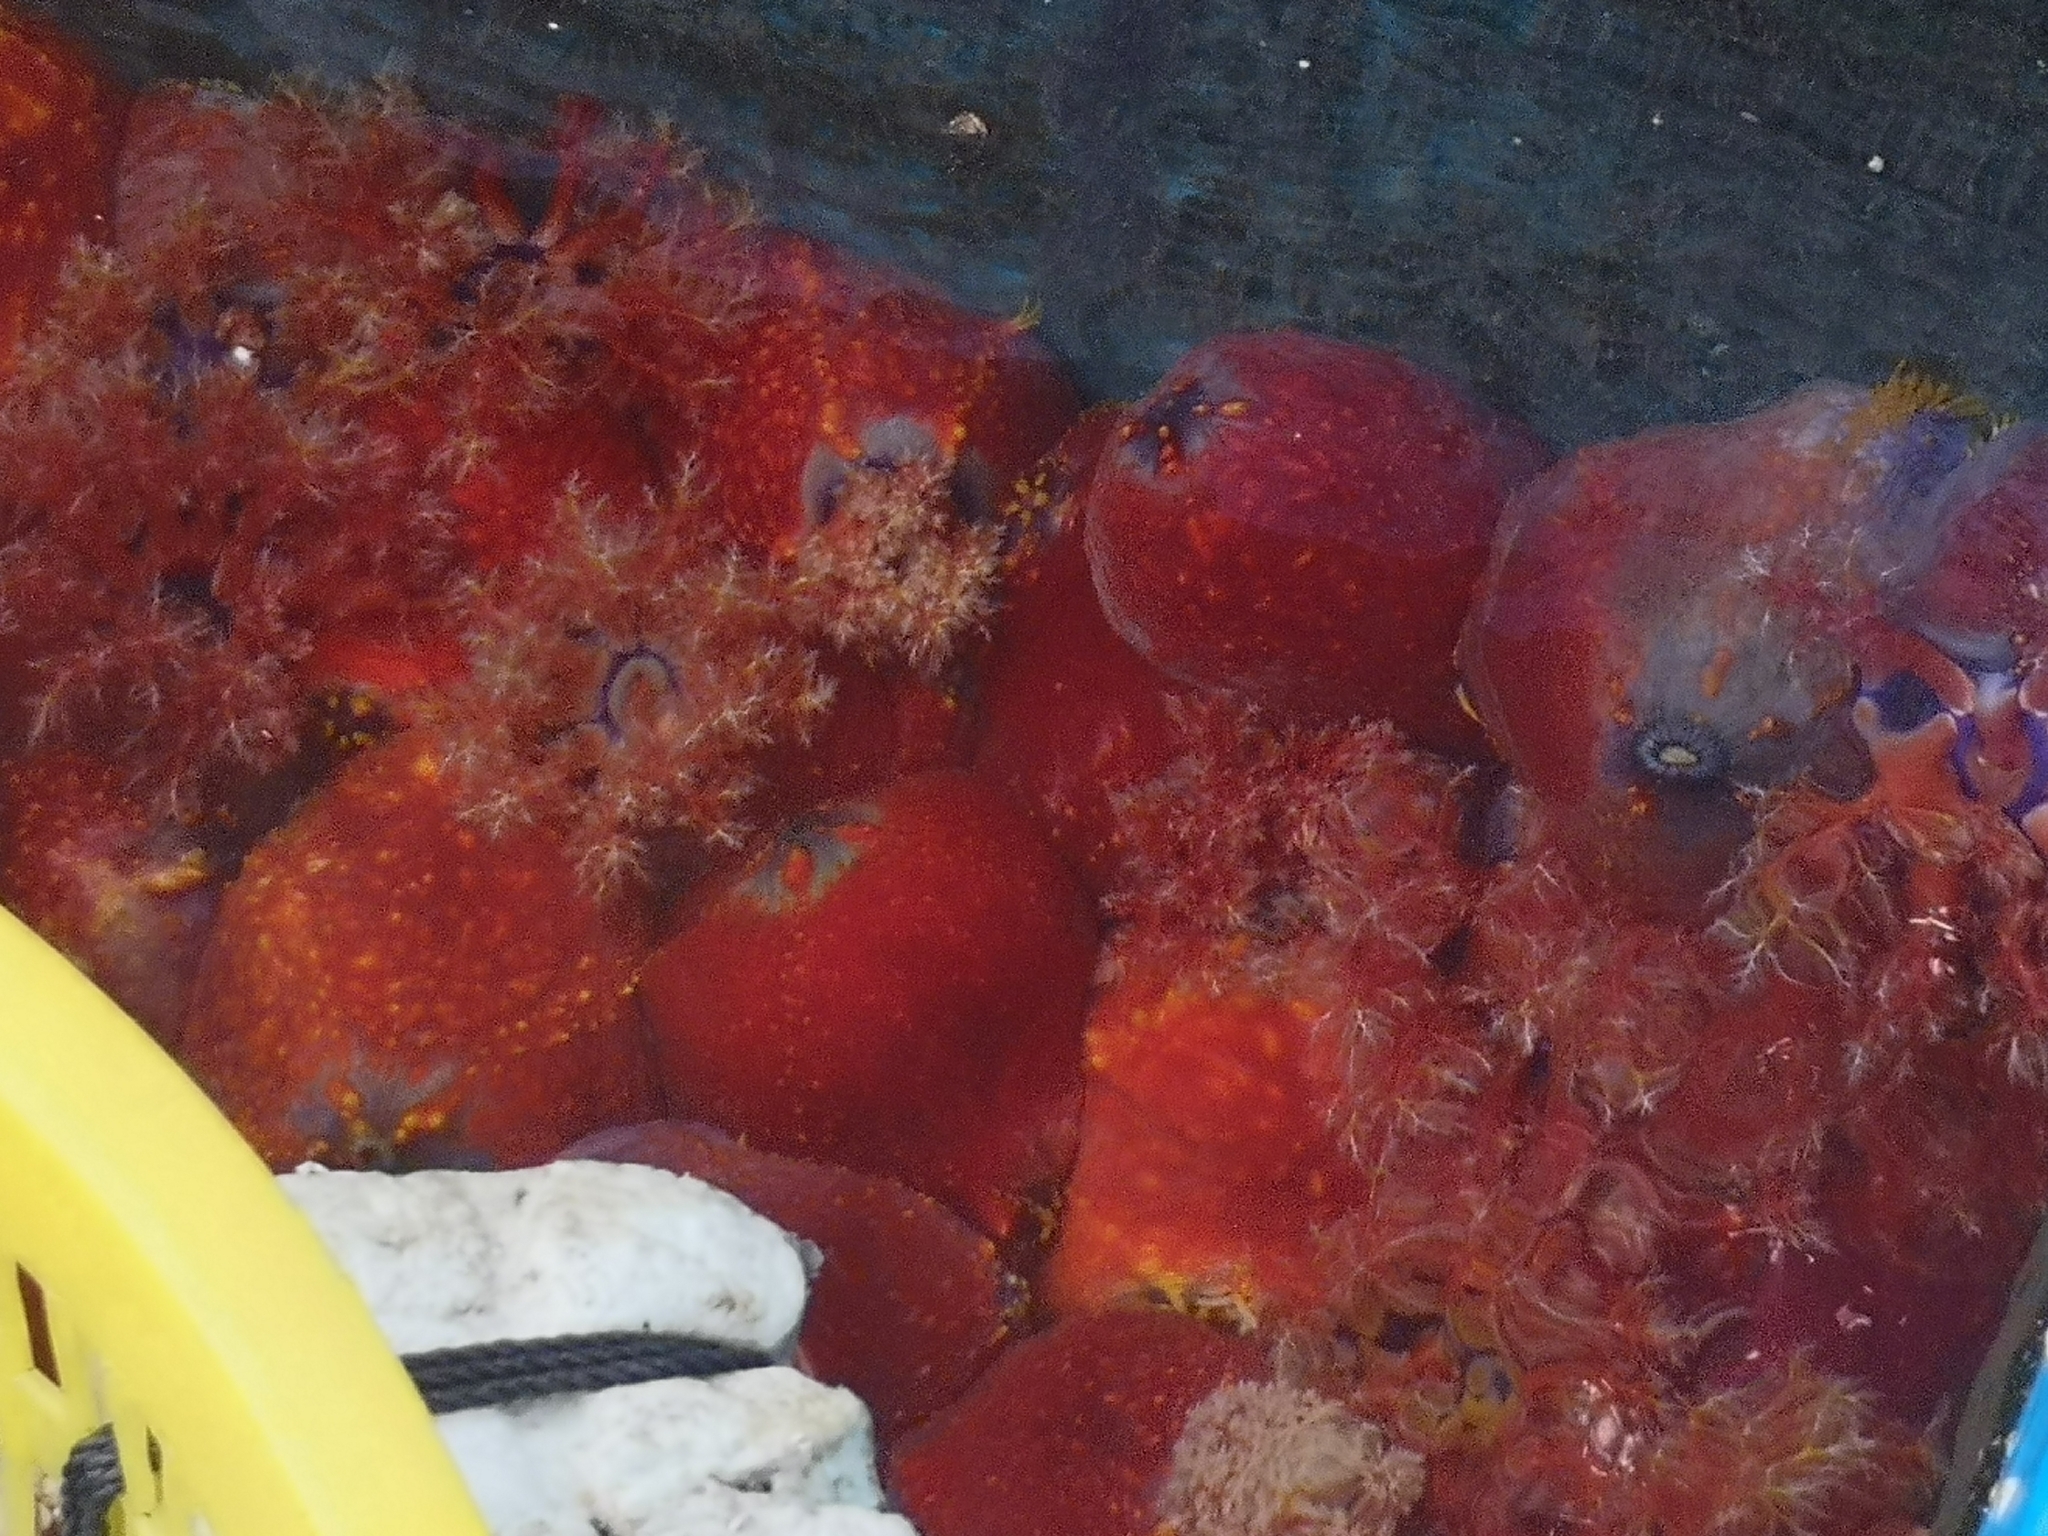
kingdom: Animalia
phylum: Echinodermata
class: Holothuroidea
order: Dendrochirotida
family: Cucumariidae
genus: Pseudocolochirus
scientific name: Pseudocolochirus violaceus
